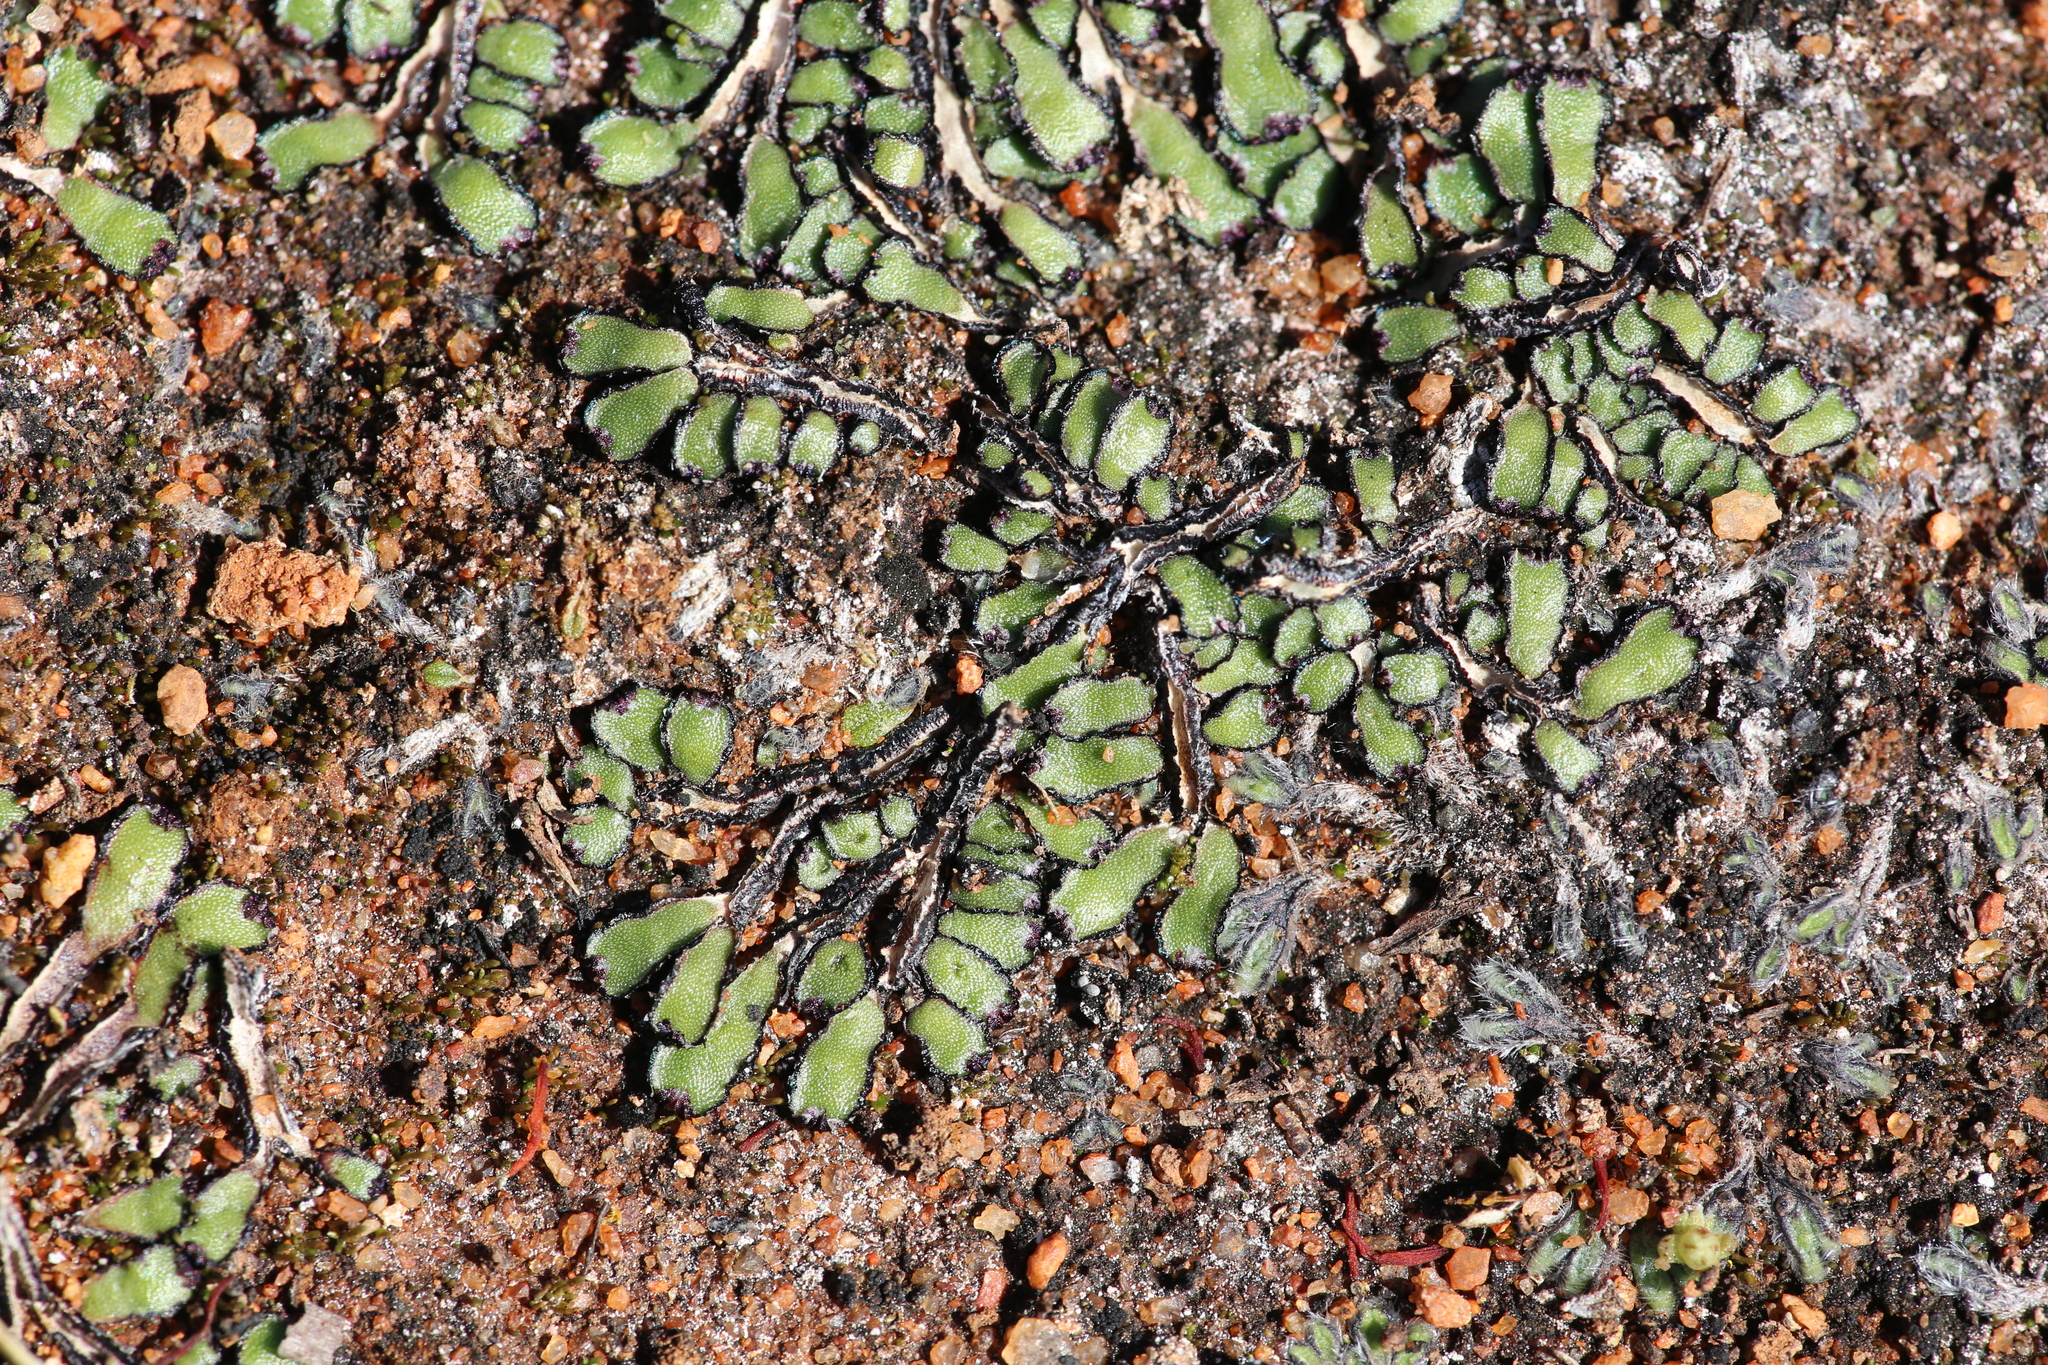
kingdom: Plantae
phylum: Marchantiophyta
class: Marchantiopsida
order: Marchantiales
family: Targioniaceae
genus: Targionia
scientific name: Targionia hypophylla
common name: Orobus-seed liverwort
